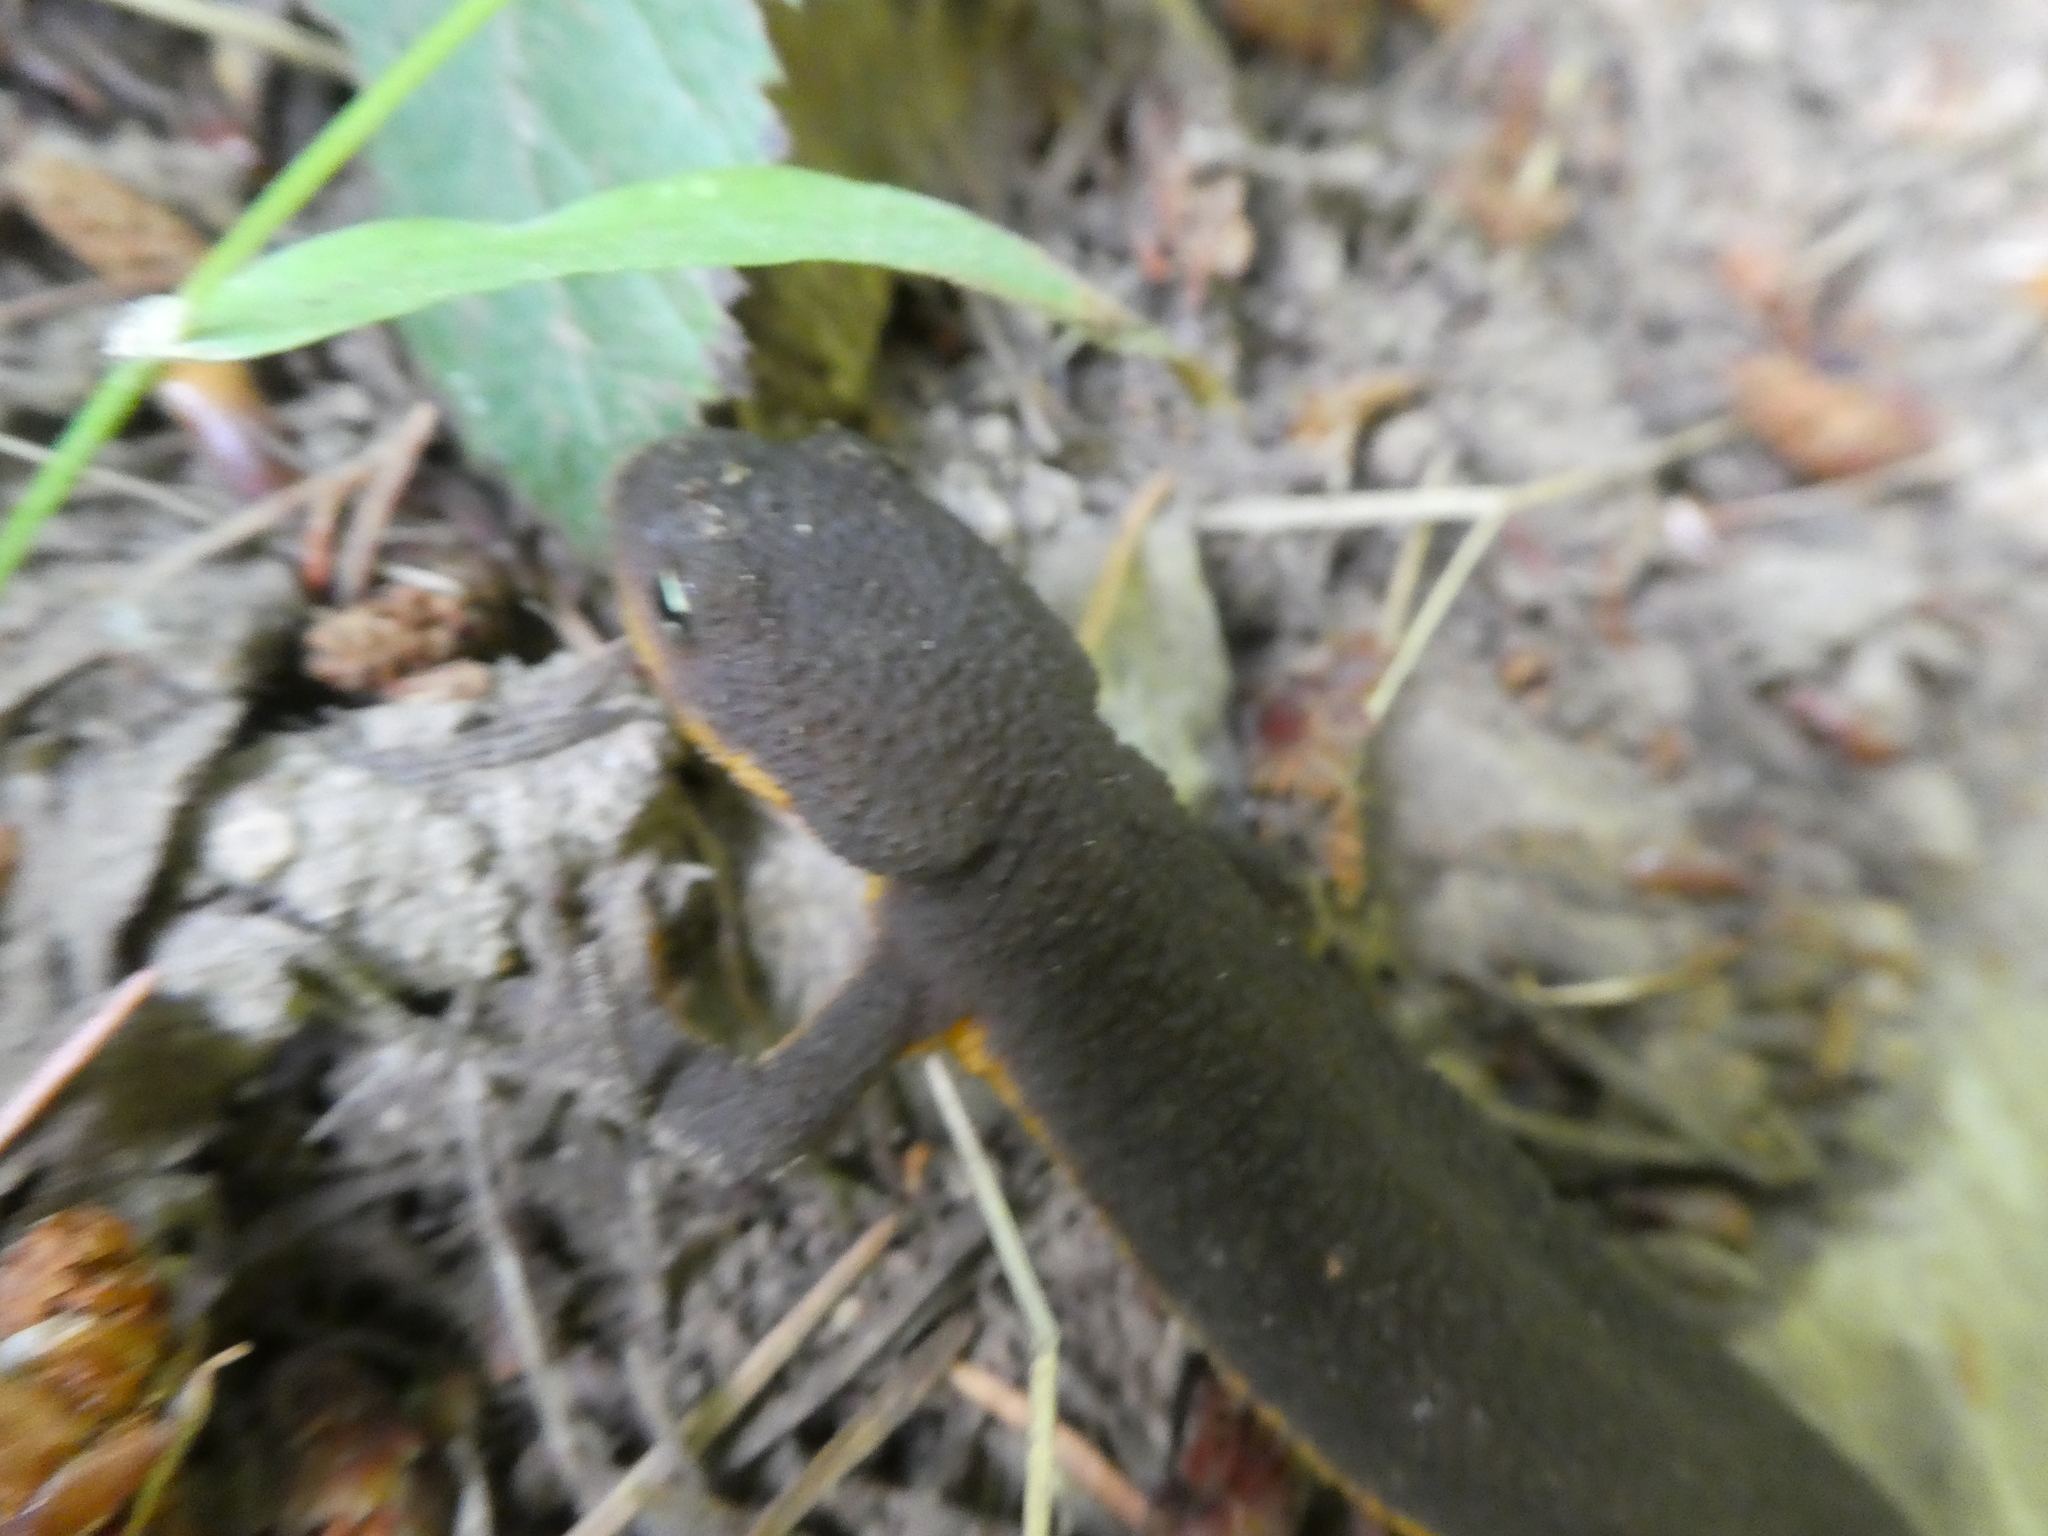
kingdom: Animalia
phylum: Chordata
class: Amphibia
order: Caudata
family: Salamandridae
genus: Taricha
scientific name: Taricha granulosa
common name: Roughskin newt
